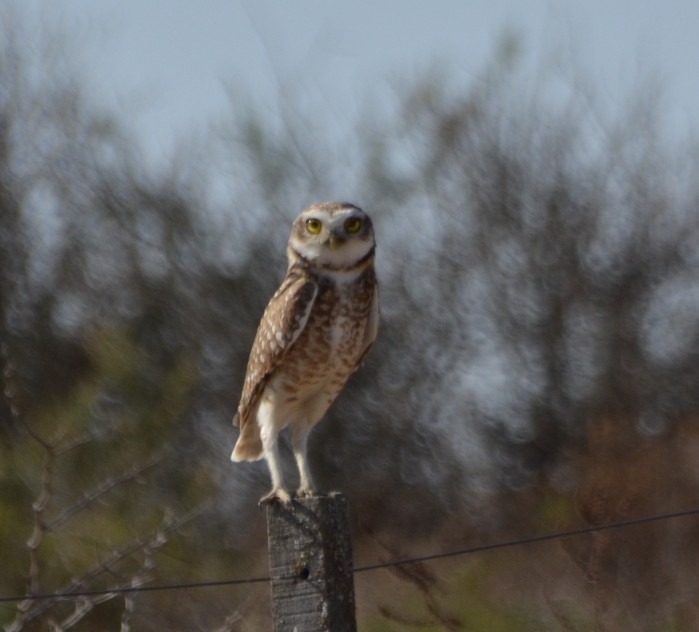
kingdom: Animalia
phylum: Chordata
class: Aves
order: Strigiformes
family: Strigidae
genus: Athene
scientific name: Athene cunicularia
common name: Burrowing owl
